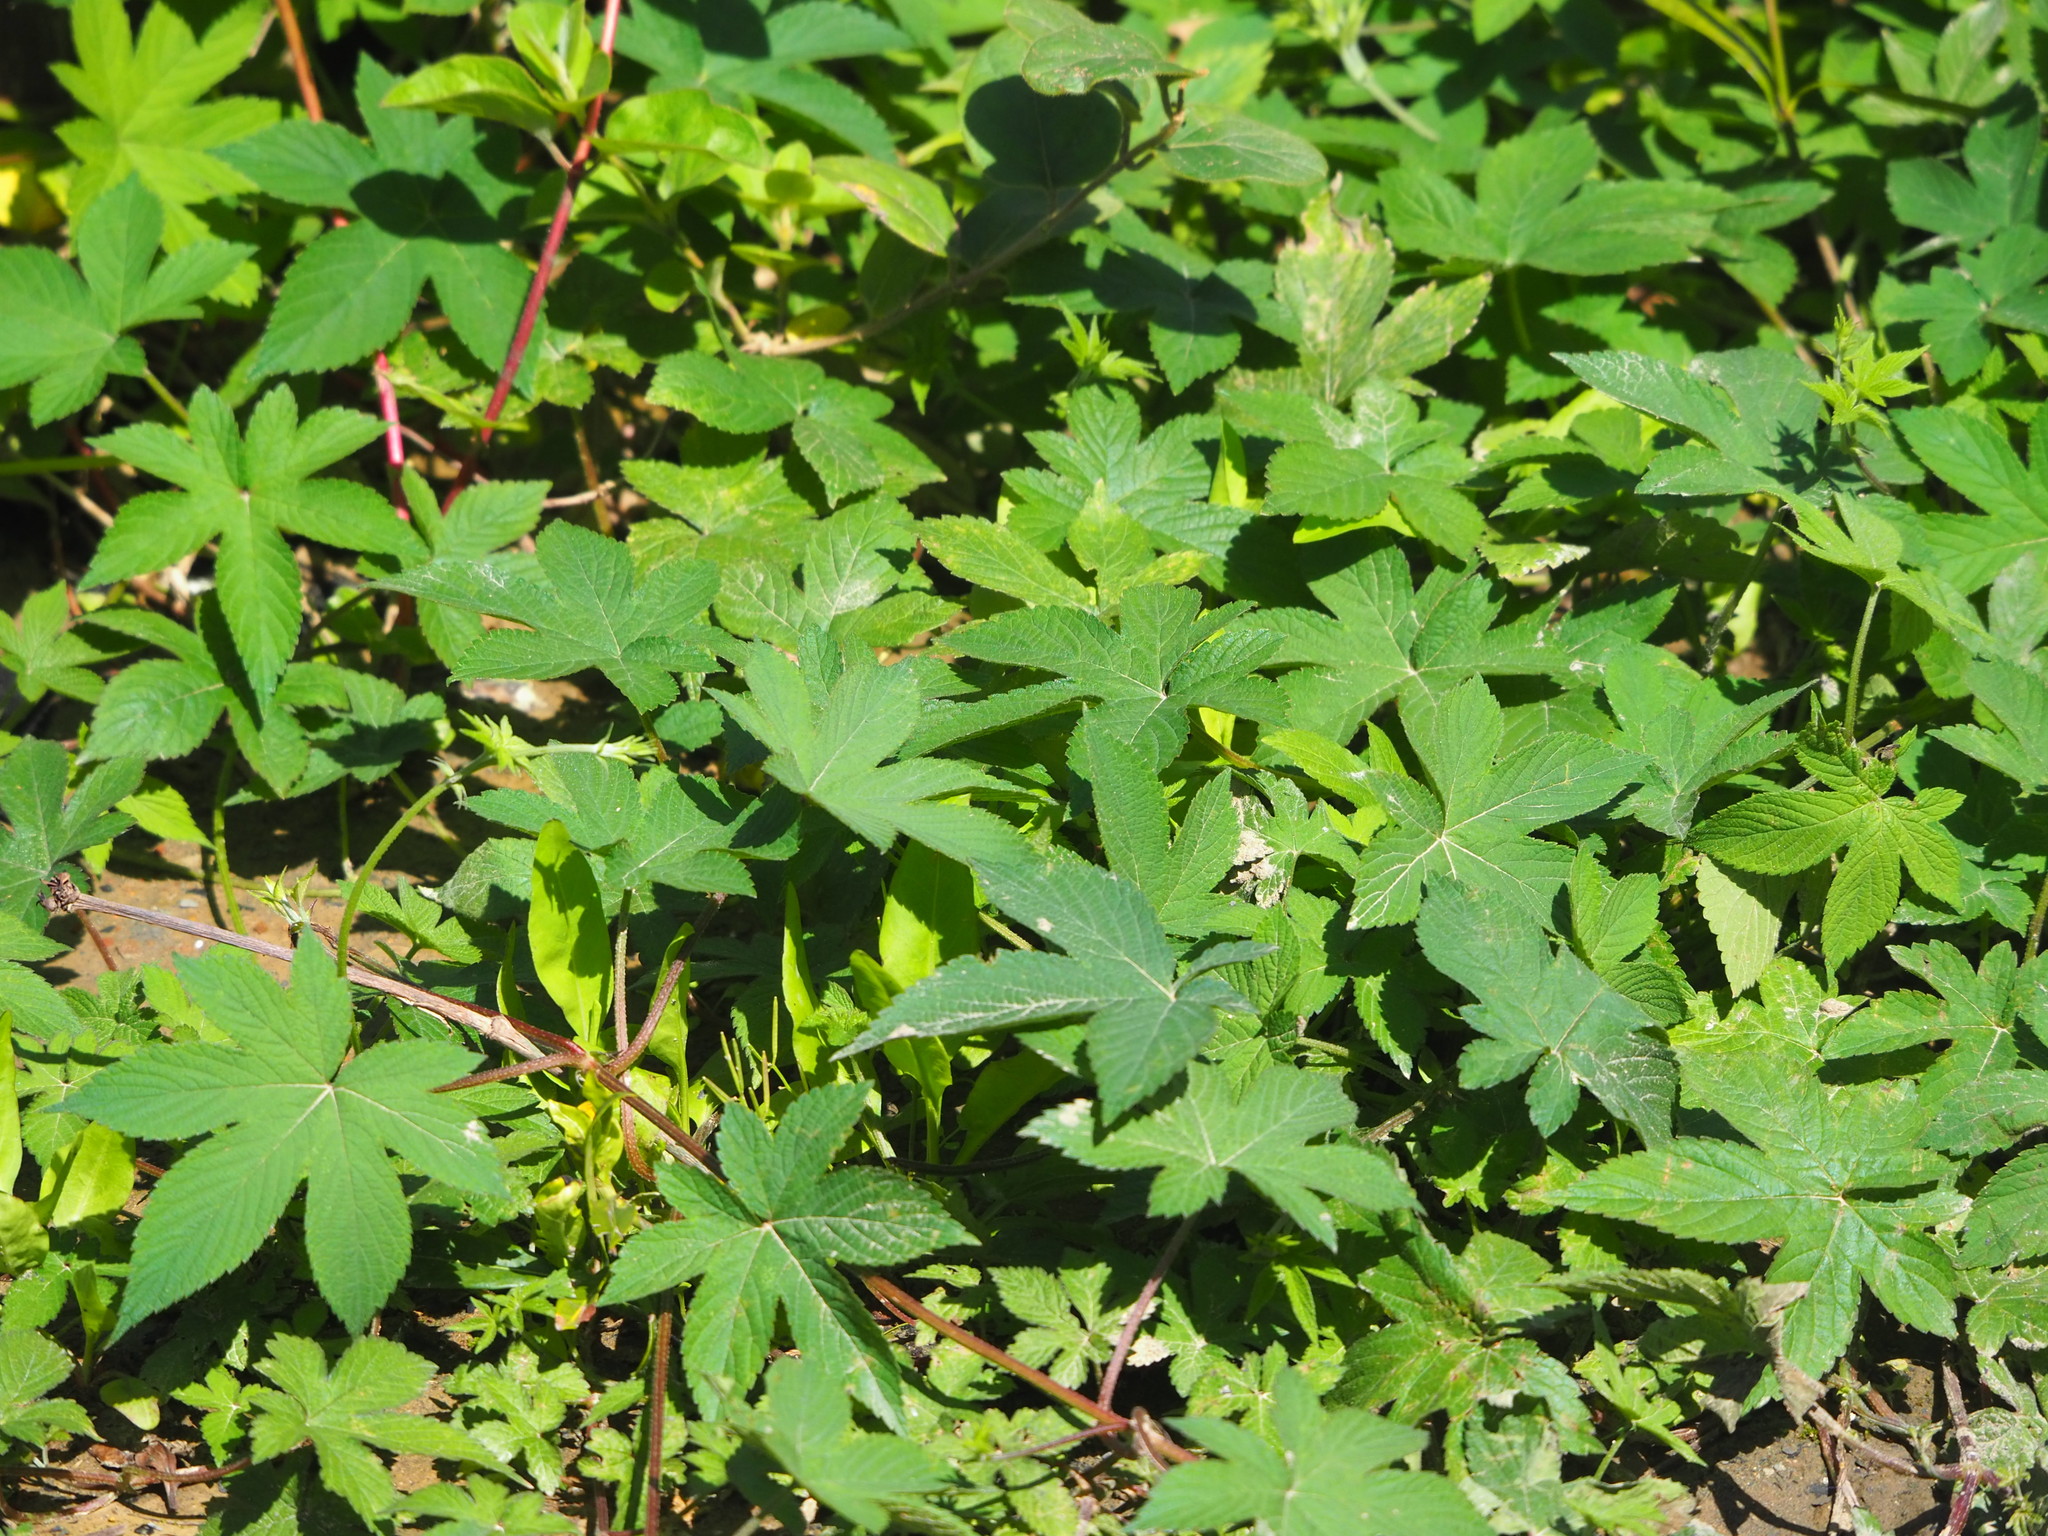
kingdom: Plantae
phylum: Tracheophyta
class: Magnoliopsida
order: Rosales
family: Cannabaceae
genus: Humulus
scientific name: Humulus scandens
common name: Japanese hop
